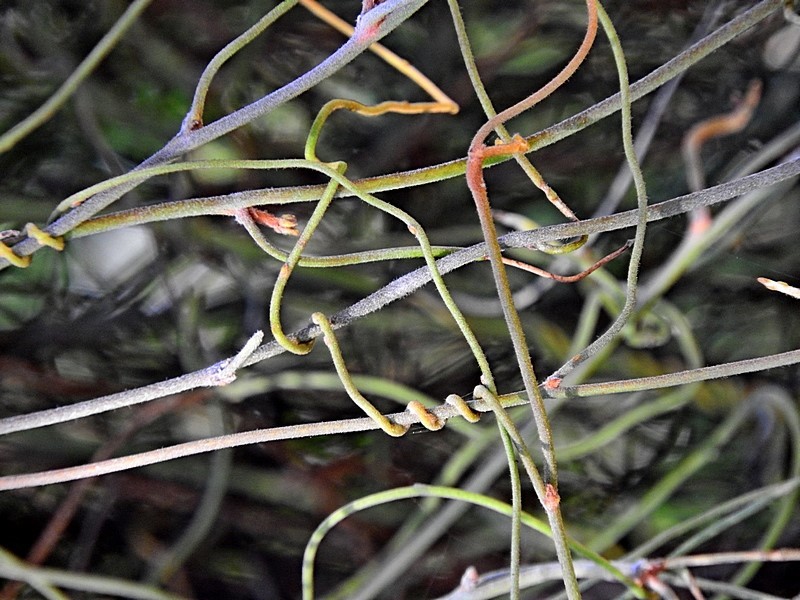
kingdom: Plantae
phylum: Tracheophyta
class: Magnoliopsida
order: Laurales
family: Lauraceae
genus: Cassytha
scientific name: Cassytha pubescens
